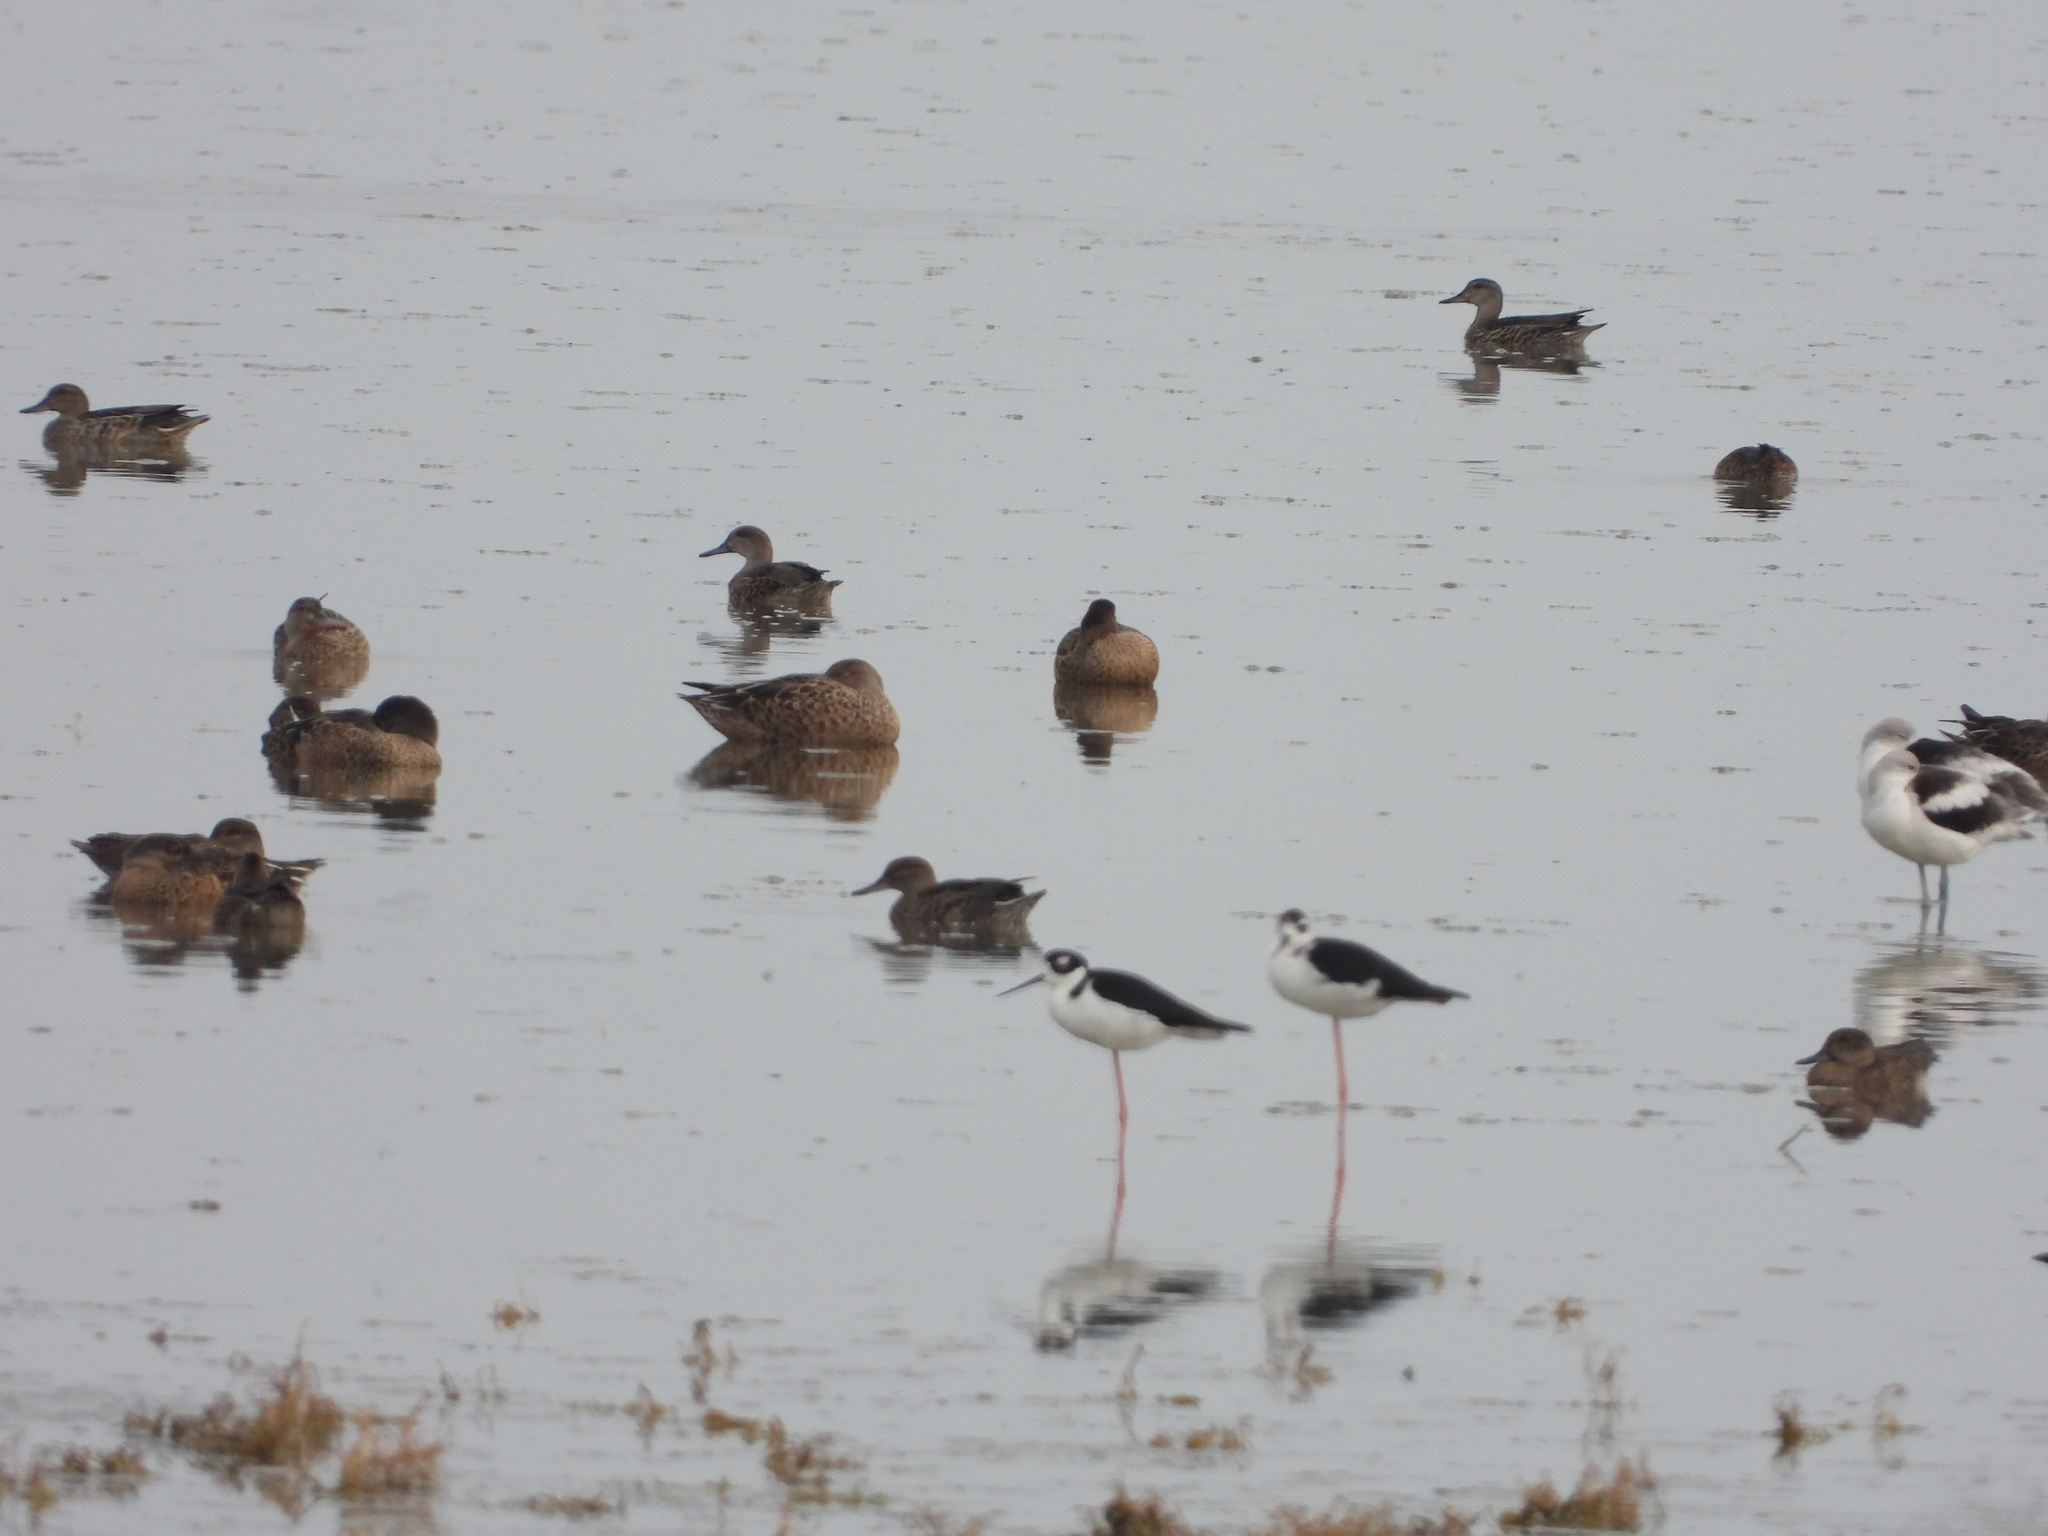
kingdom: Animalia
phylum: Chordata
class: Aves
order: Anseriformes
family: Anatidae
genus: Spatula
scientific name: Spatula clypeata
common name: Northern shoveler
